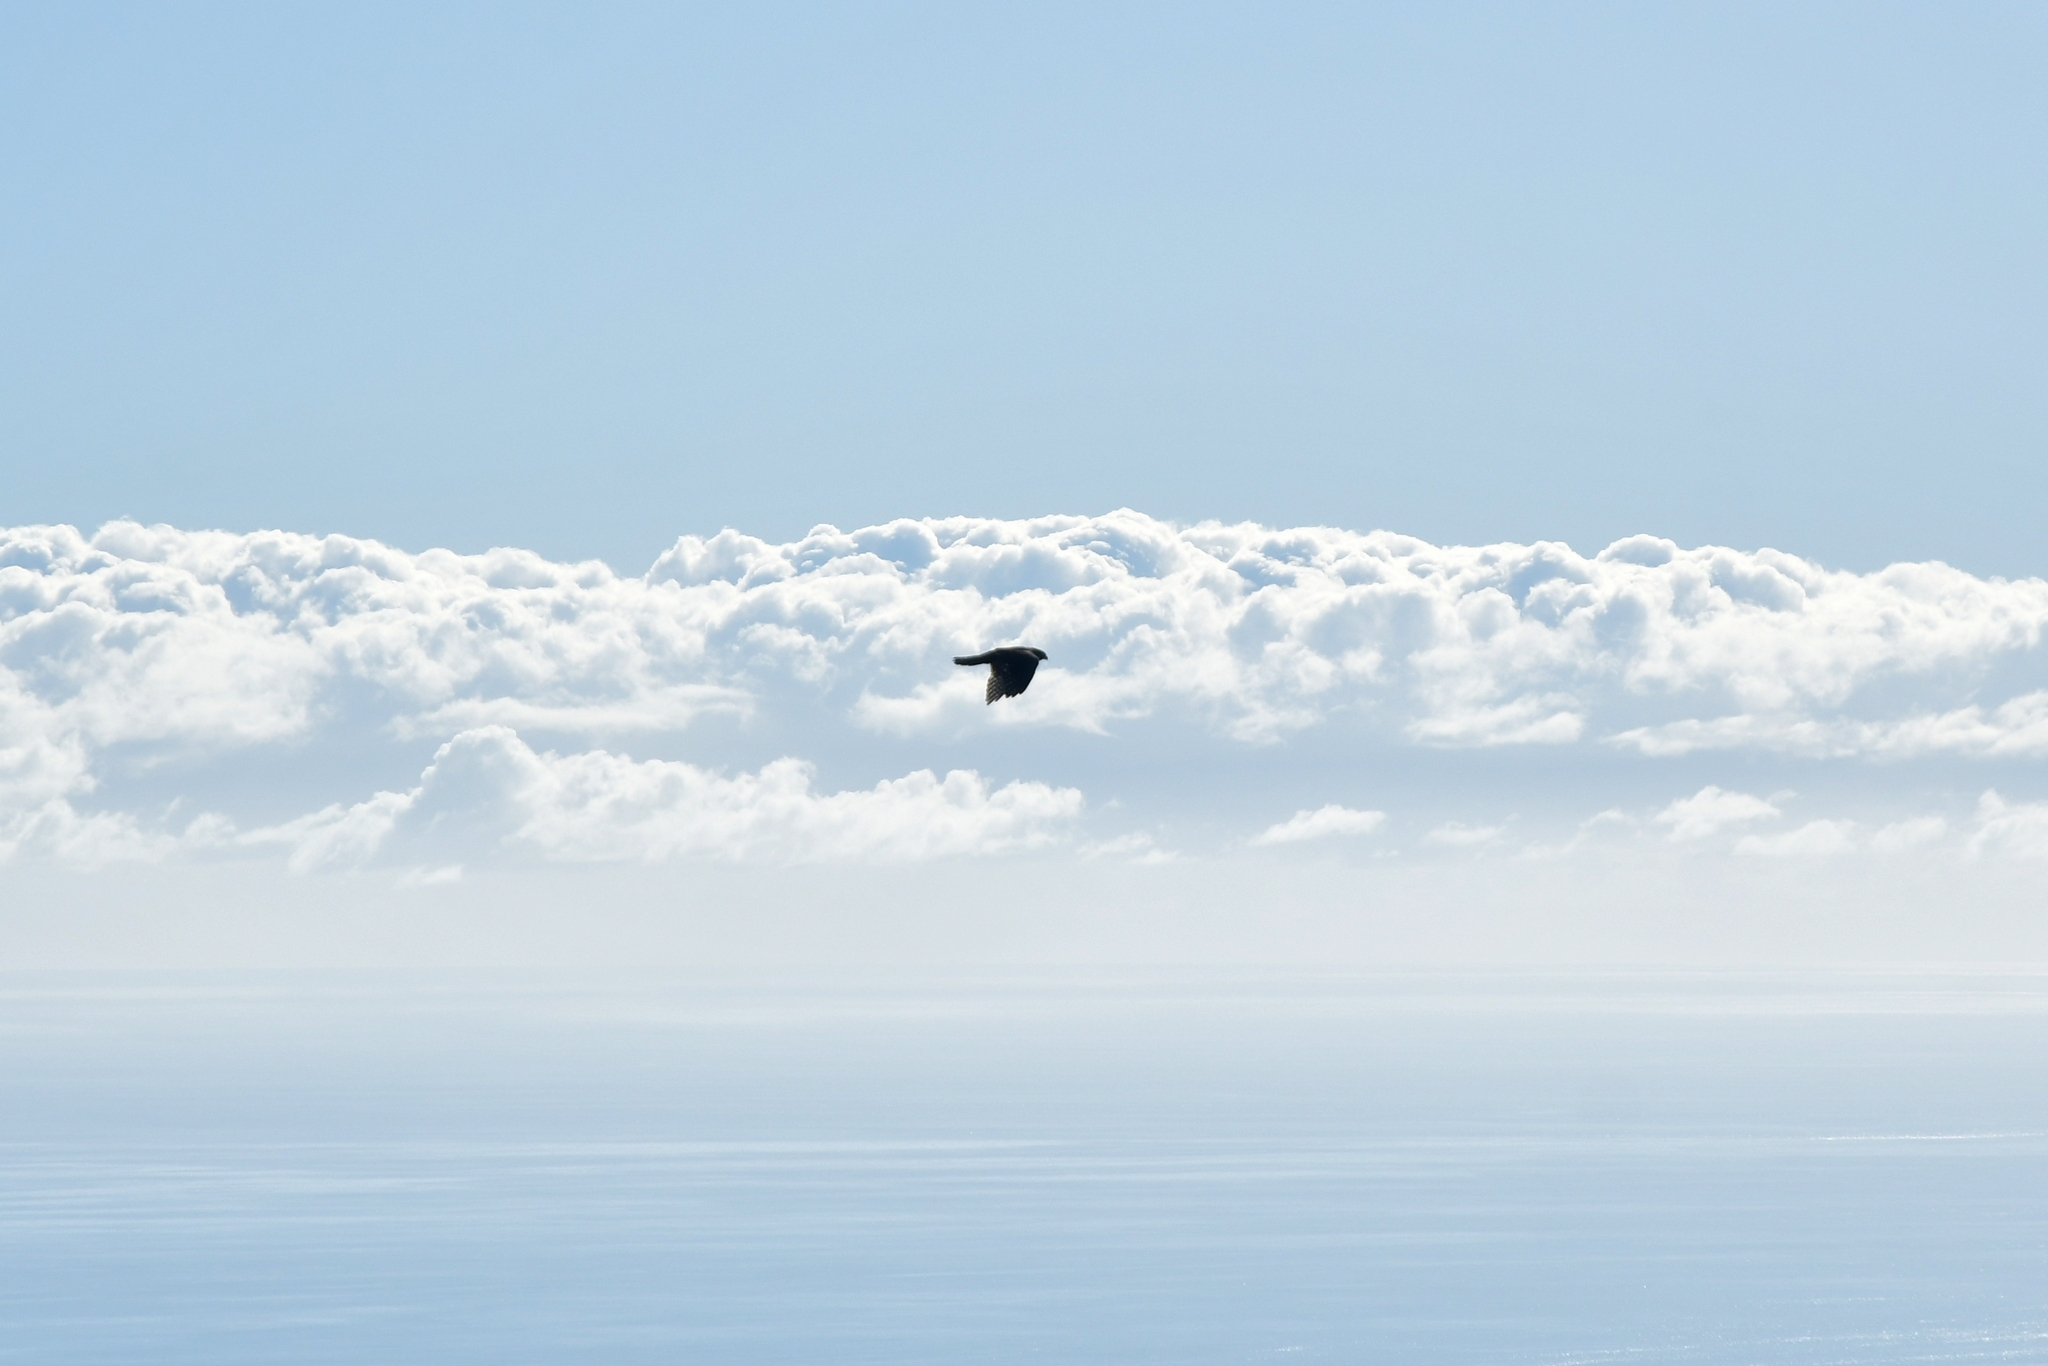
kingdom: Animalia
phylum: Chordata
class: Aves
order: Falconiformes
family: Falconidae
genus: Falco
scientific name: Falco novaeseelandiae
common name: New zealand falcon
